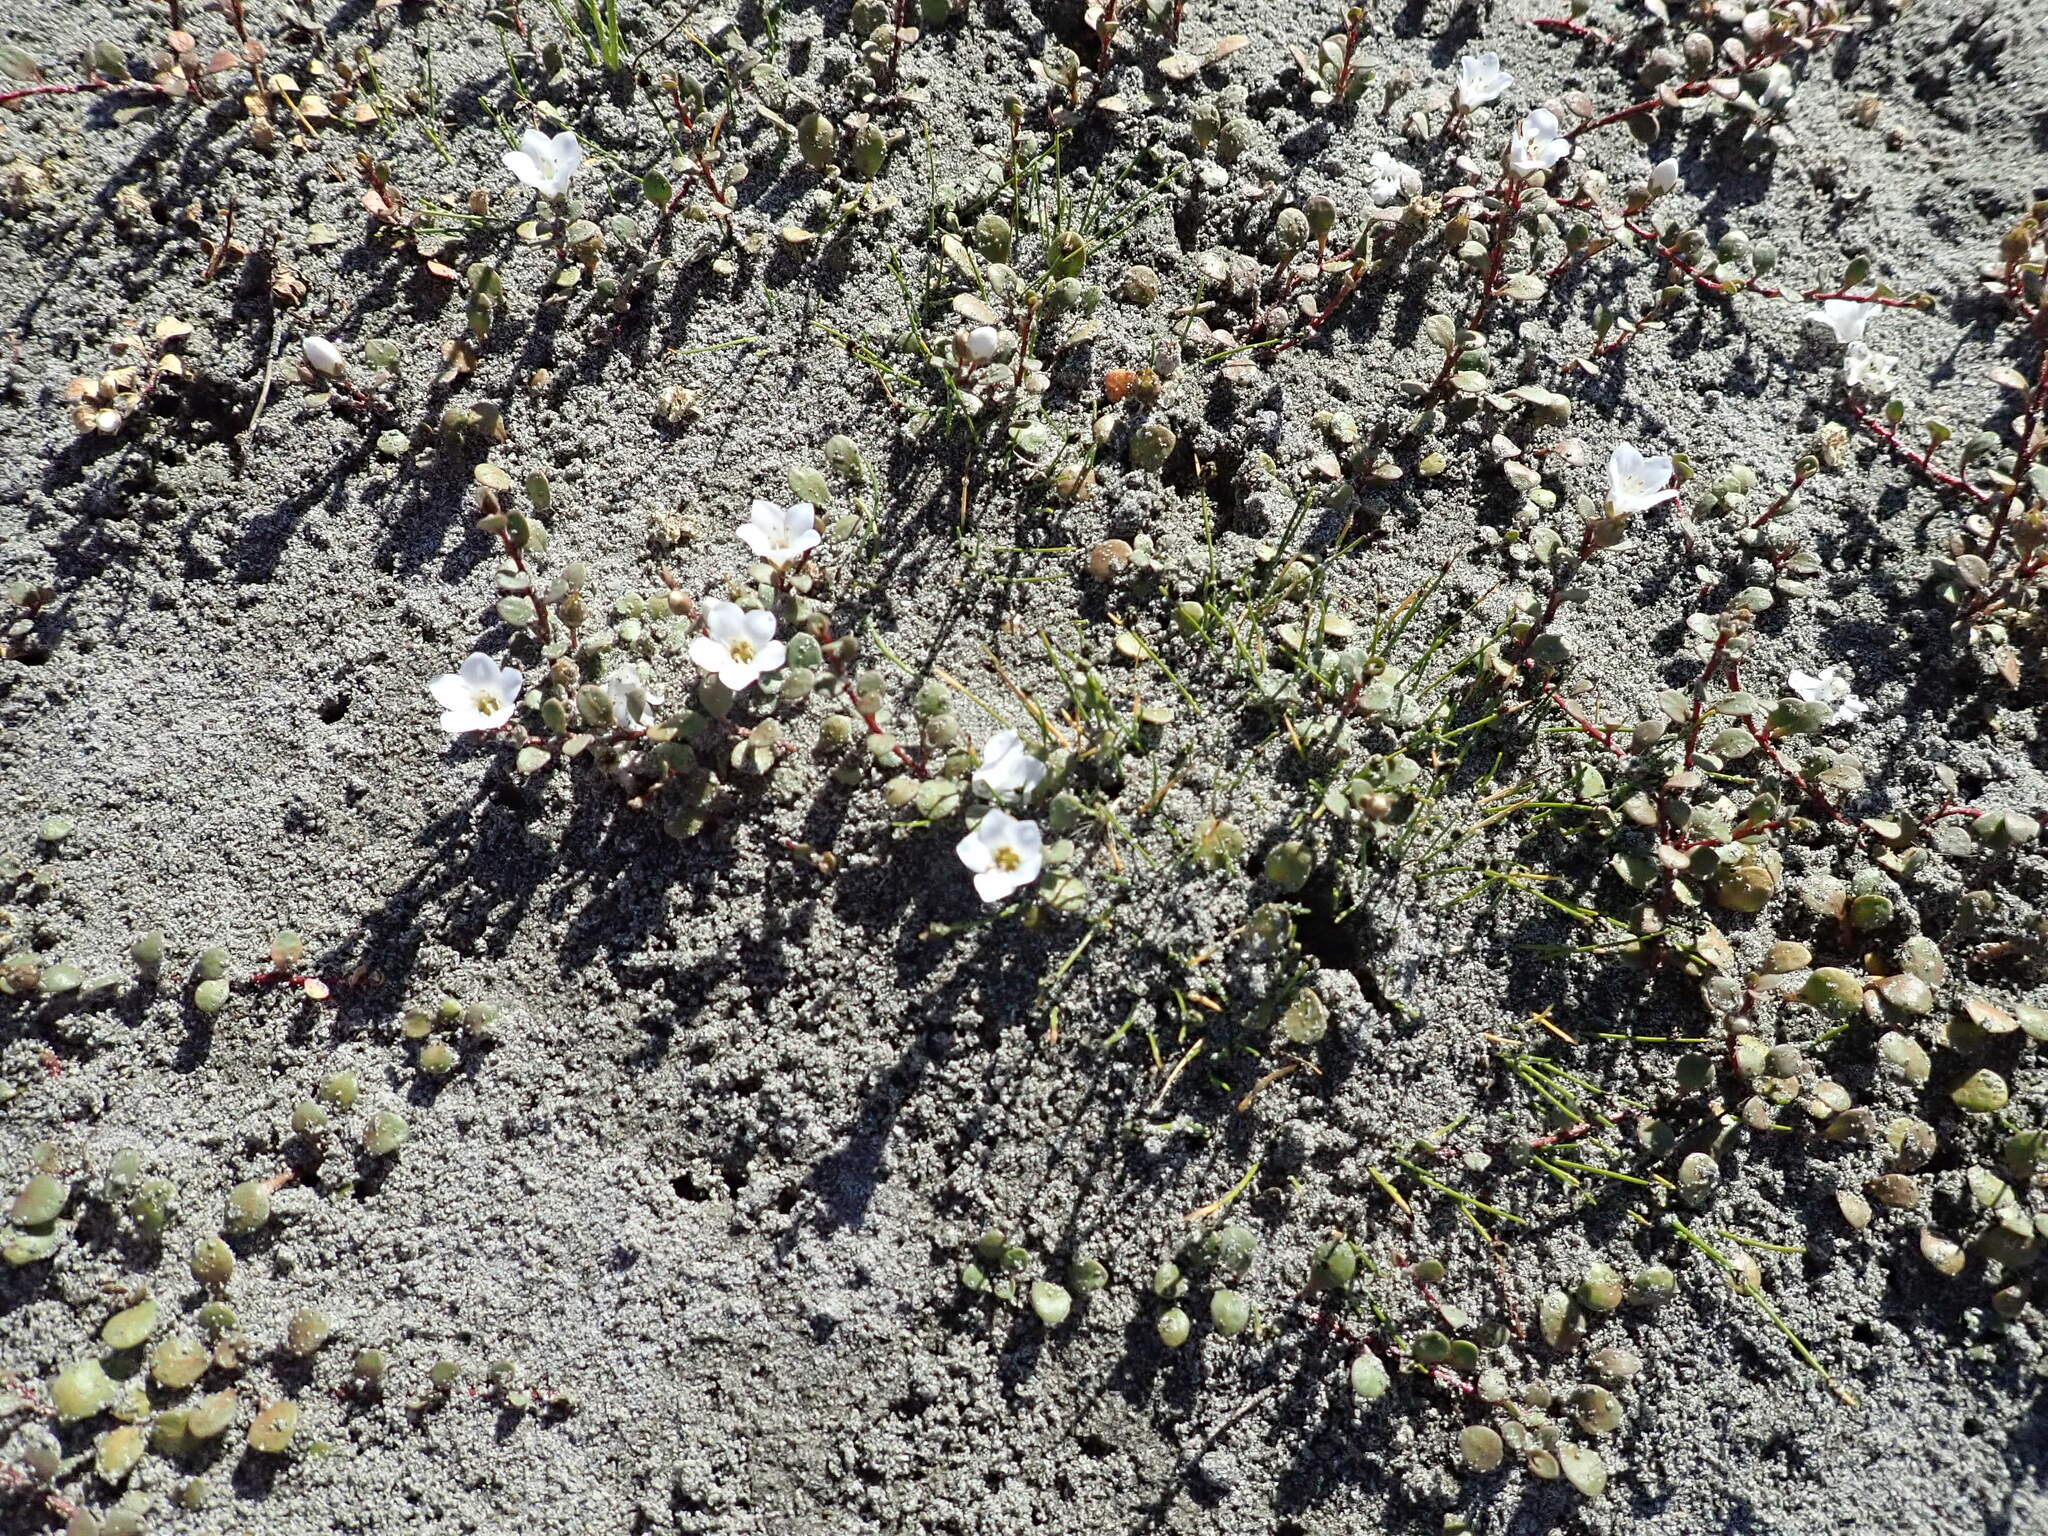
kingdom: Plantae
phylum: Tracheophyta
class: Magnoliopsida
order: Ericales
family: Primulaceae
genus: Samolus
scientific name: Samolus repens
